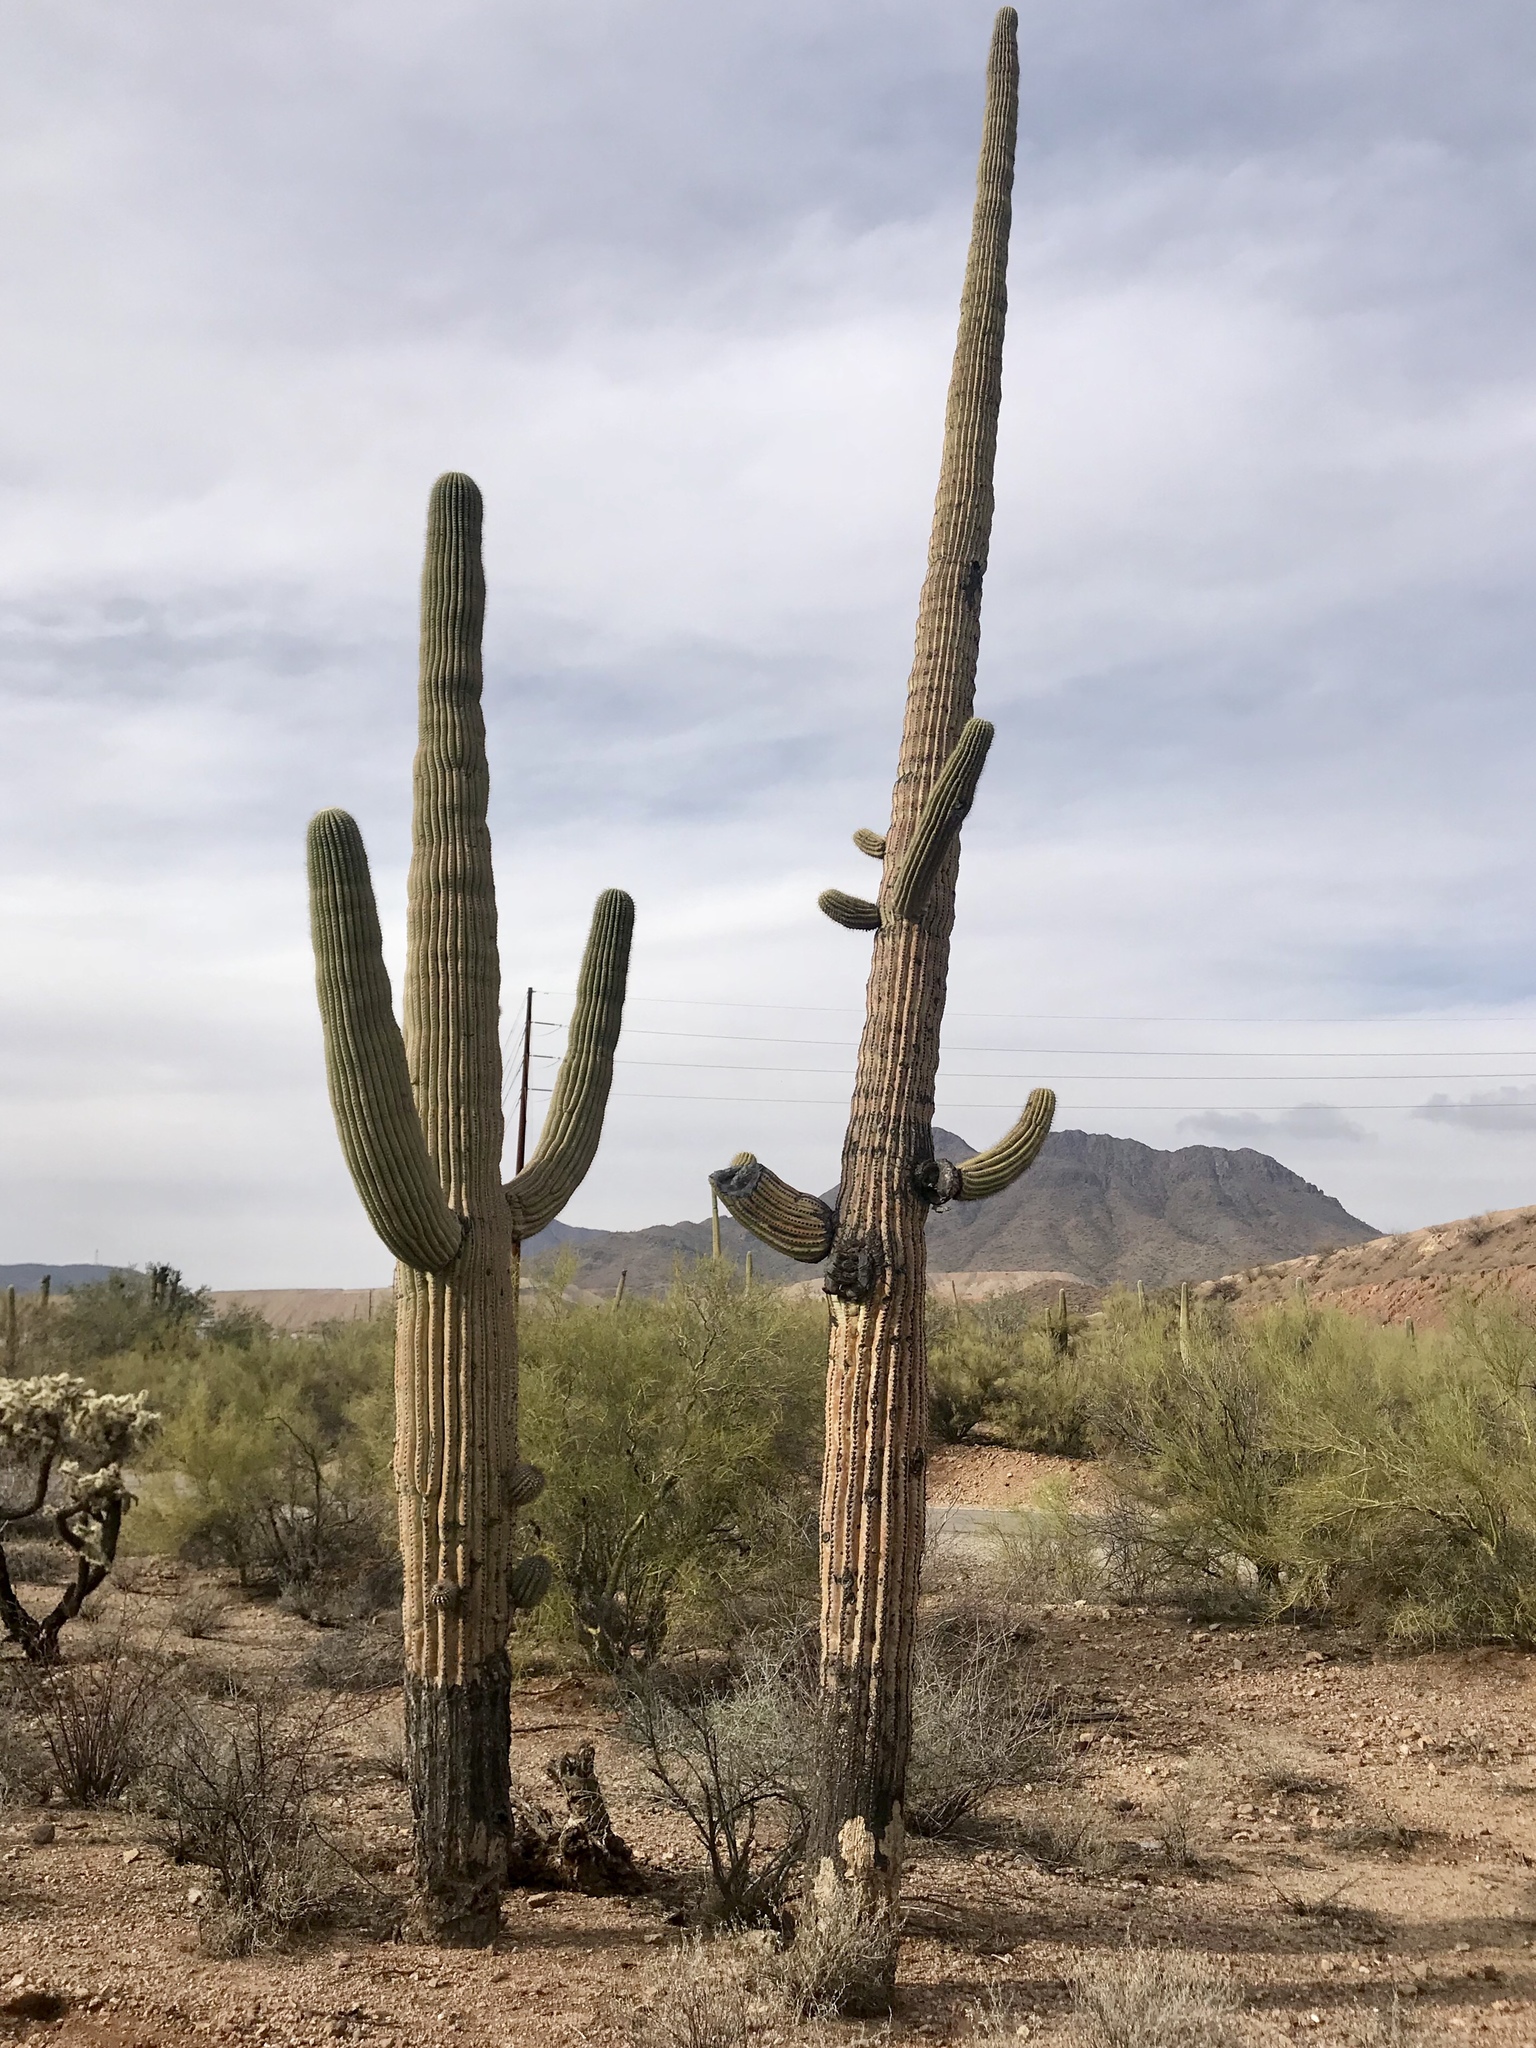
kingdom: Plantae
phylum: Tracheophyta
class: Magnoliopsida
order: Caryophyllales
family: Cactaceae
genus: Carnegiea
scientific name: Carnegiea gigantea
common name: Saguaro
